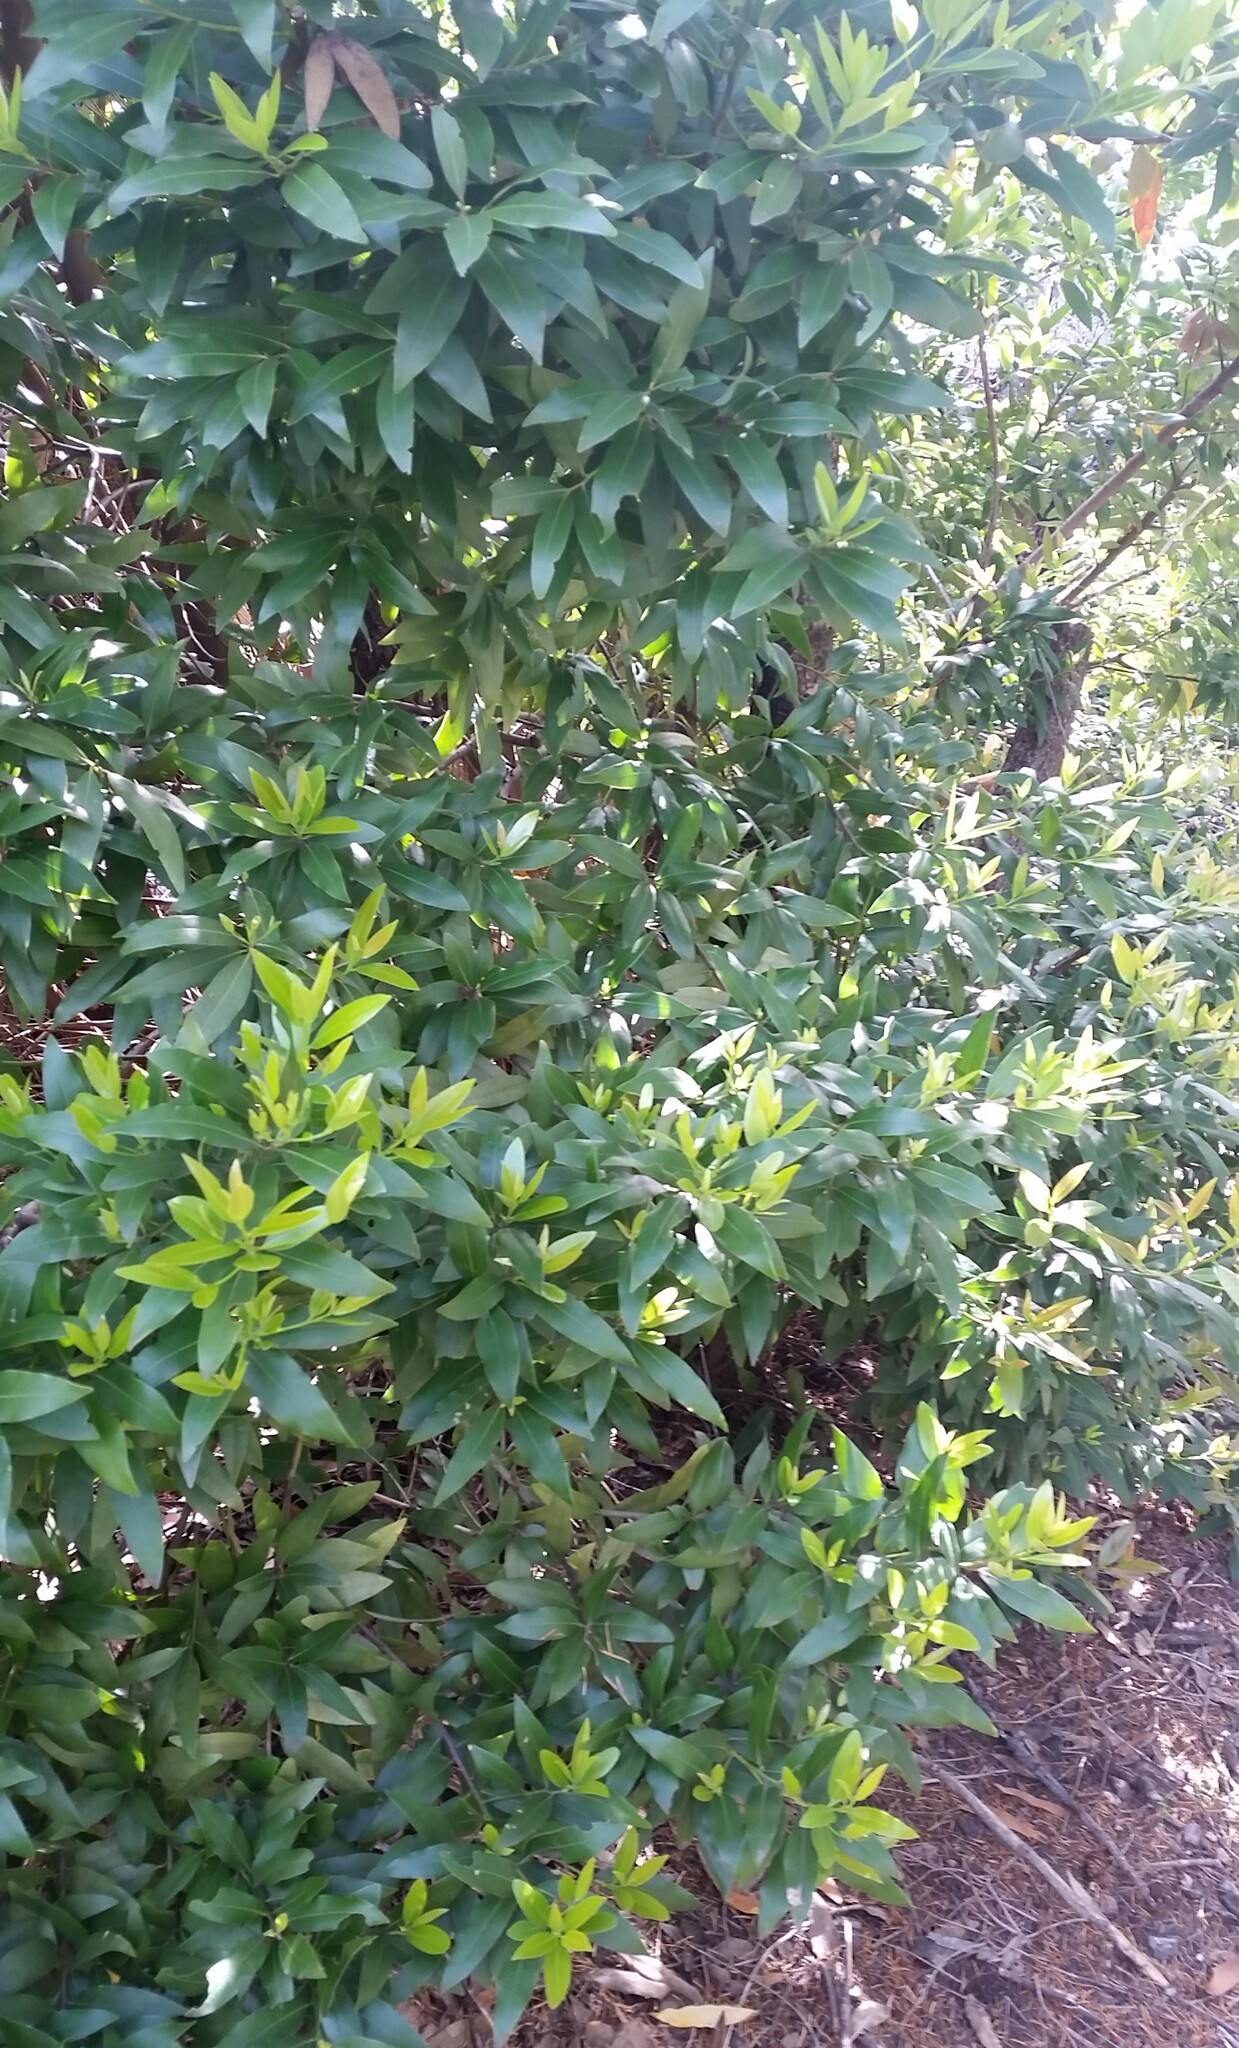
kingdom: Plantae
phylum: Tracheophyta
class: Magnoliopsida
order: Laurales
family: Lauraceae
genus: Umbellularia
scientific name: Umbellularia californica
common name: California bay
